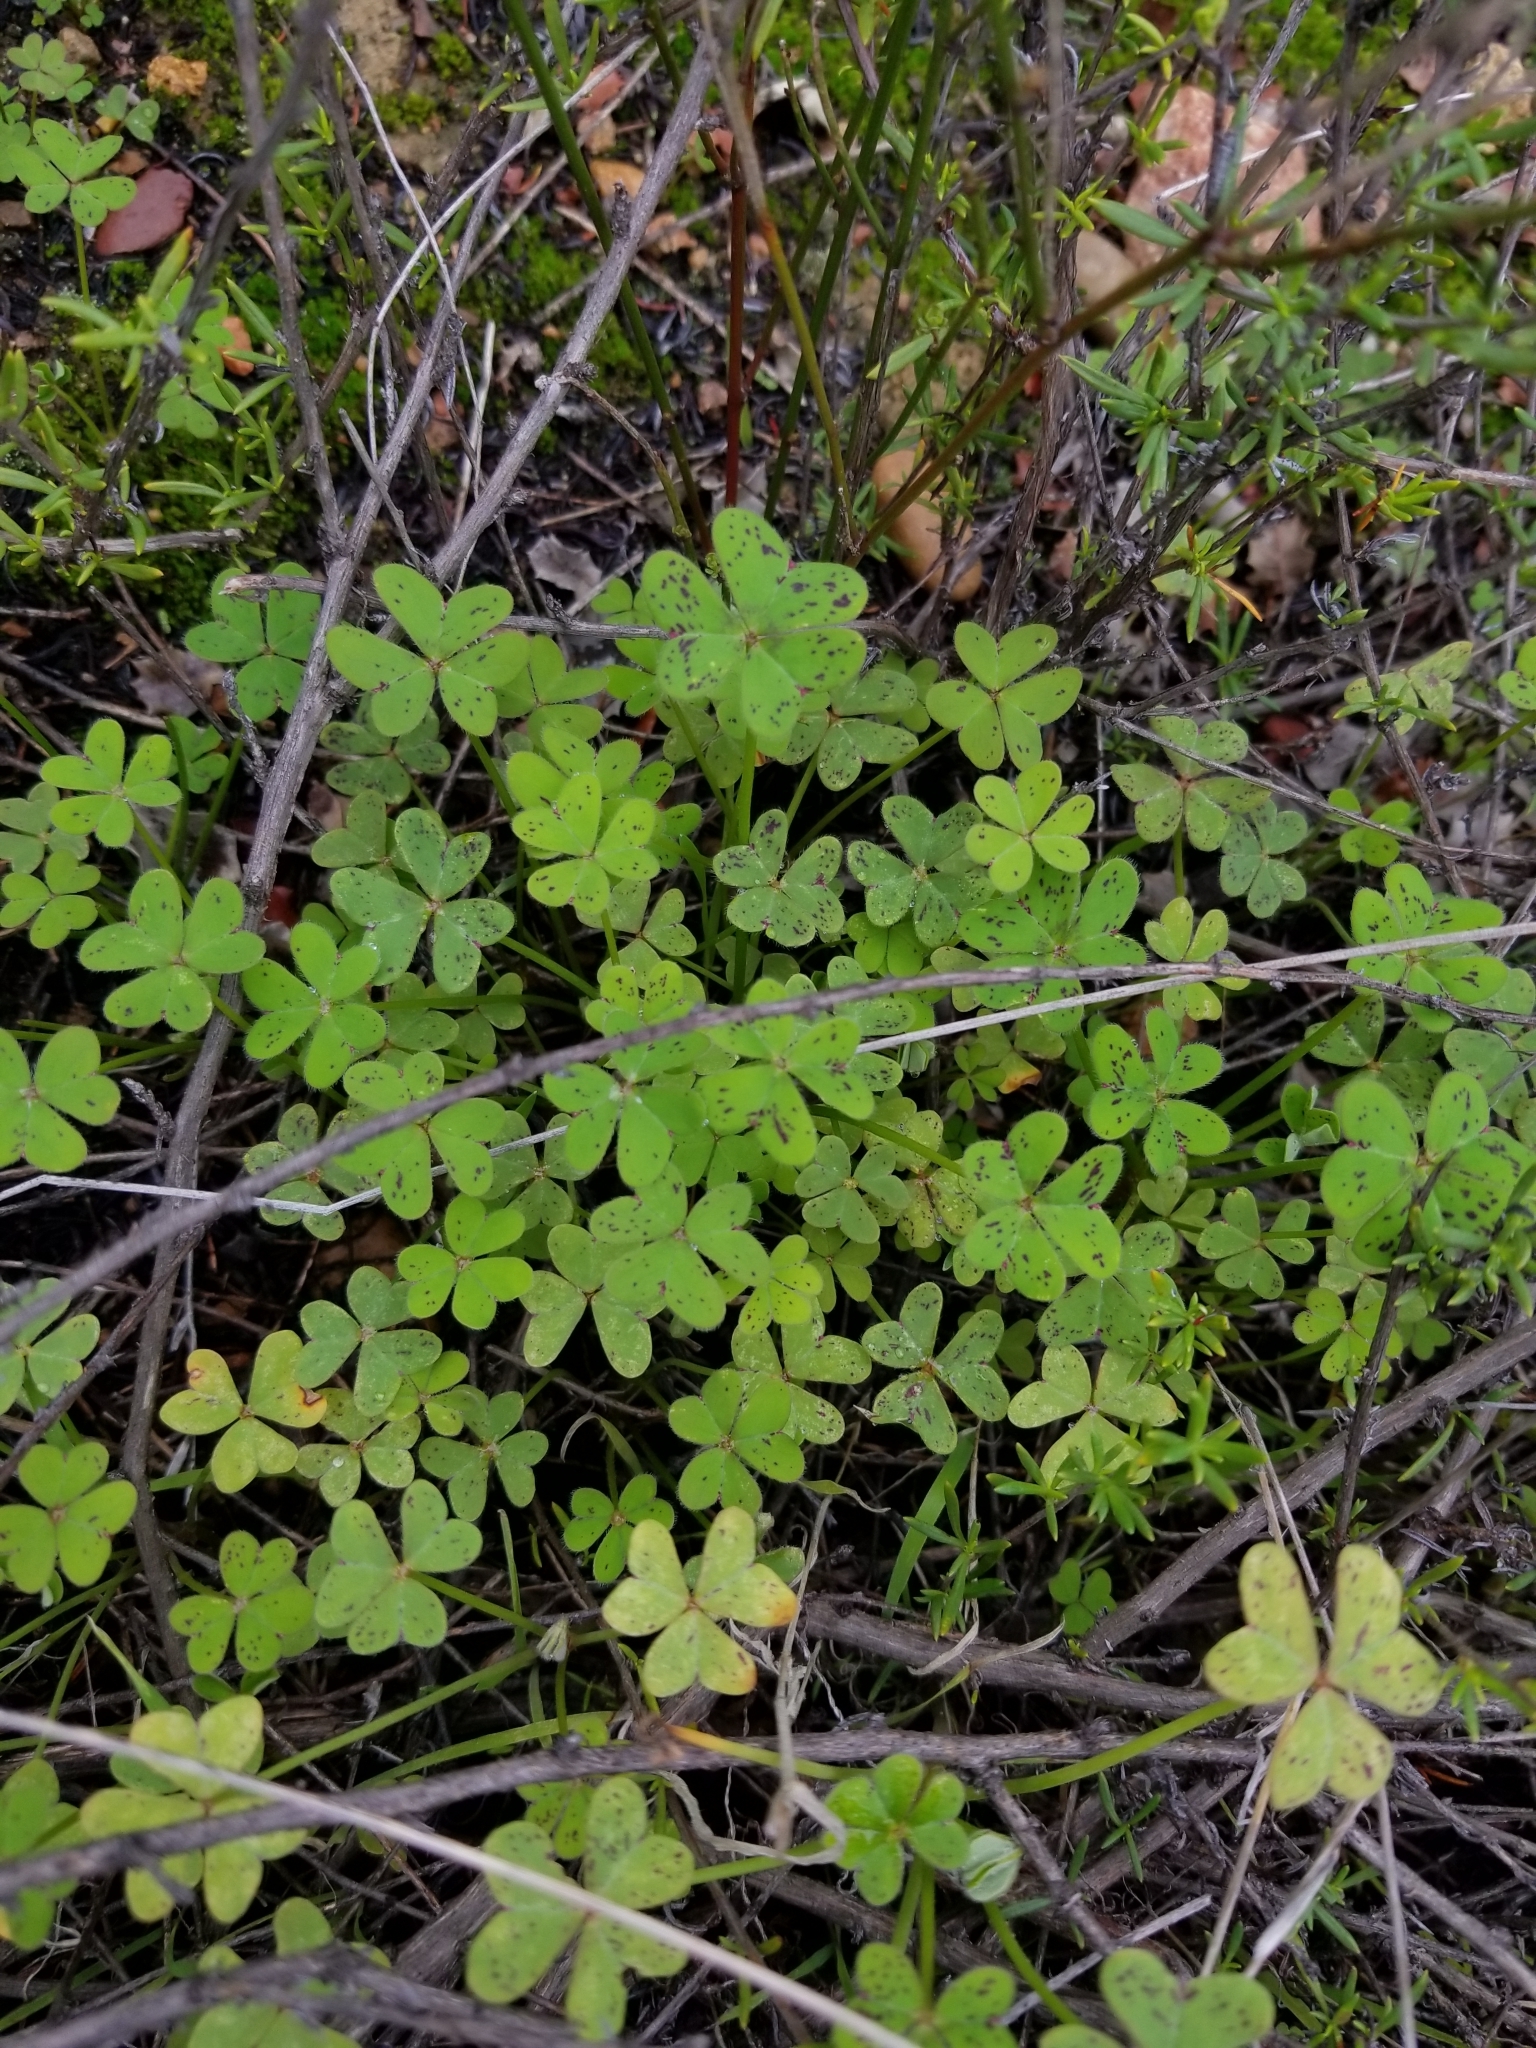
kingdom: Plantae
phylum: Tracheophyta
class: Magnoliopsida
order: Oxalidales
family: Oxalidaceae
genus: Oxalis
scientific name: Oxalis pes-caprae
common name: Bermuda-buttercup
